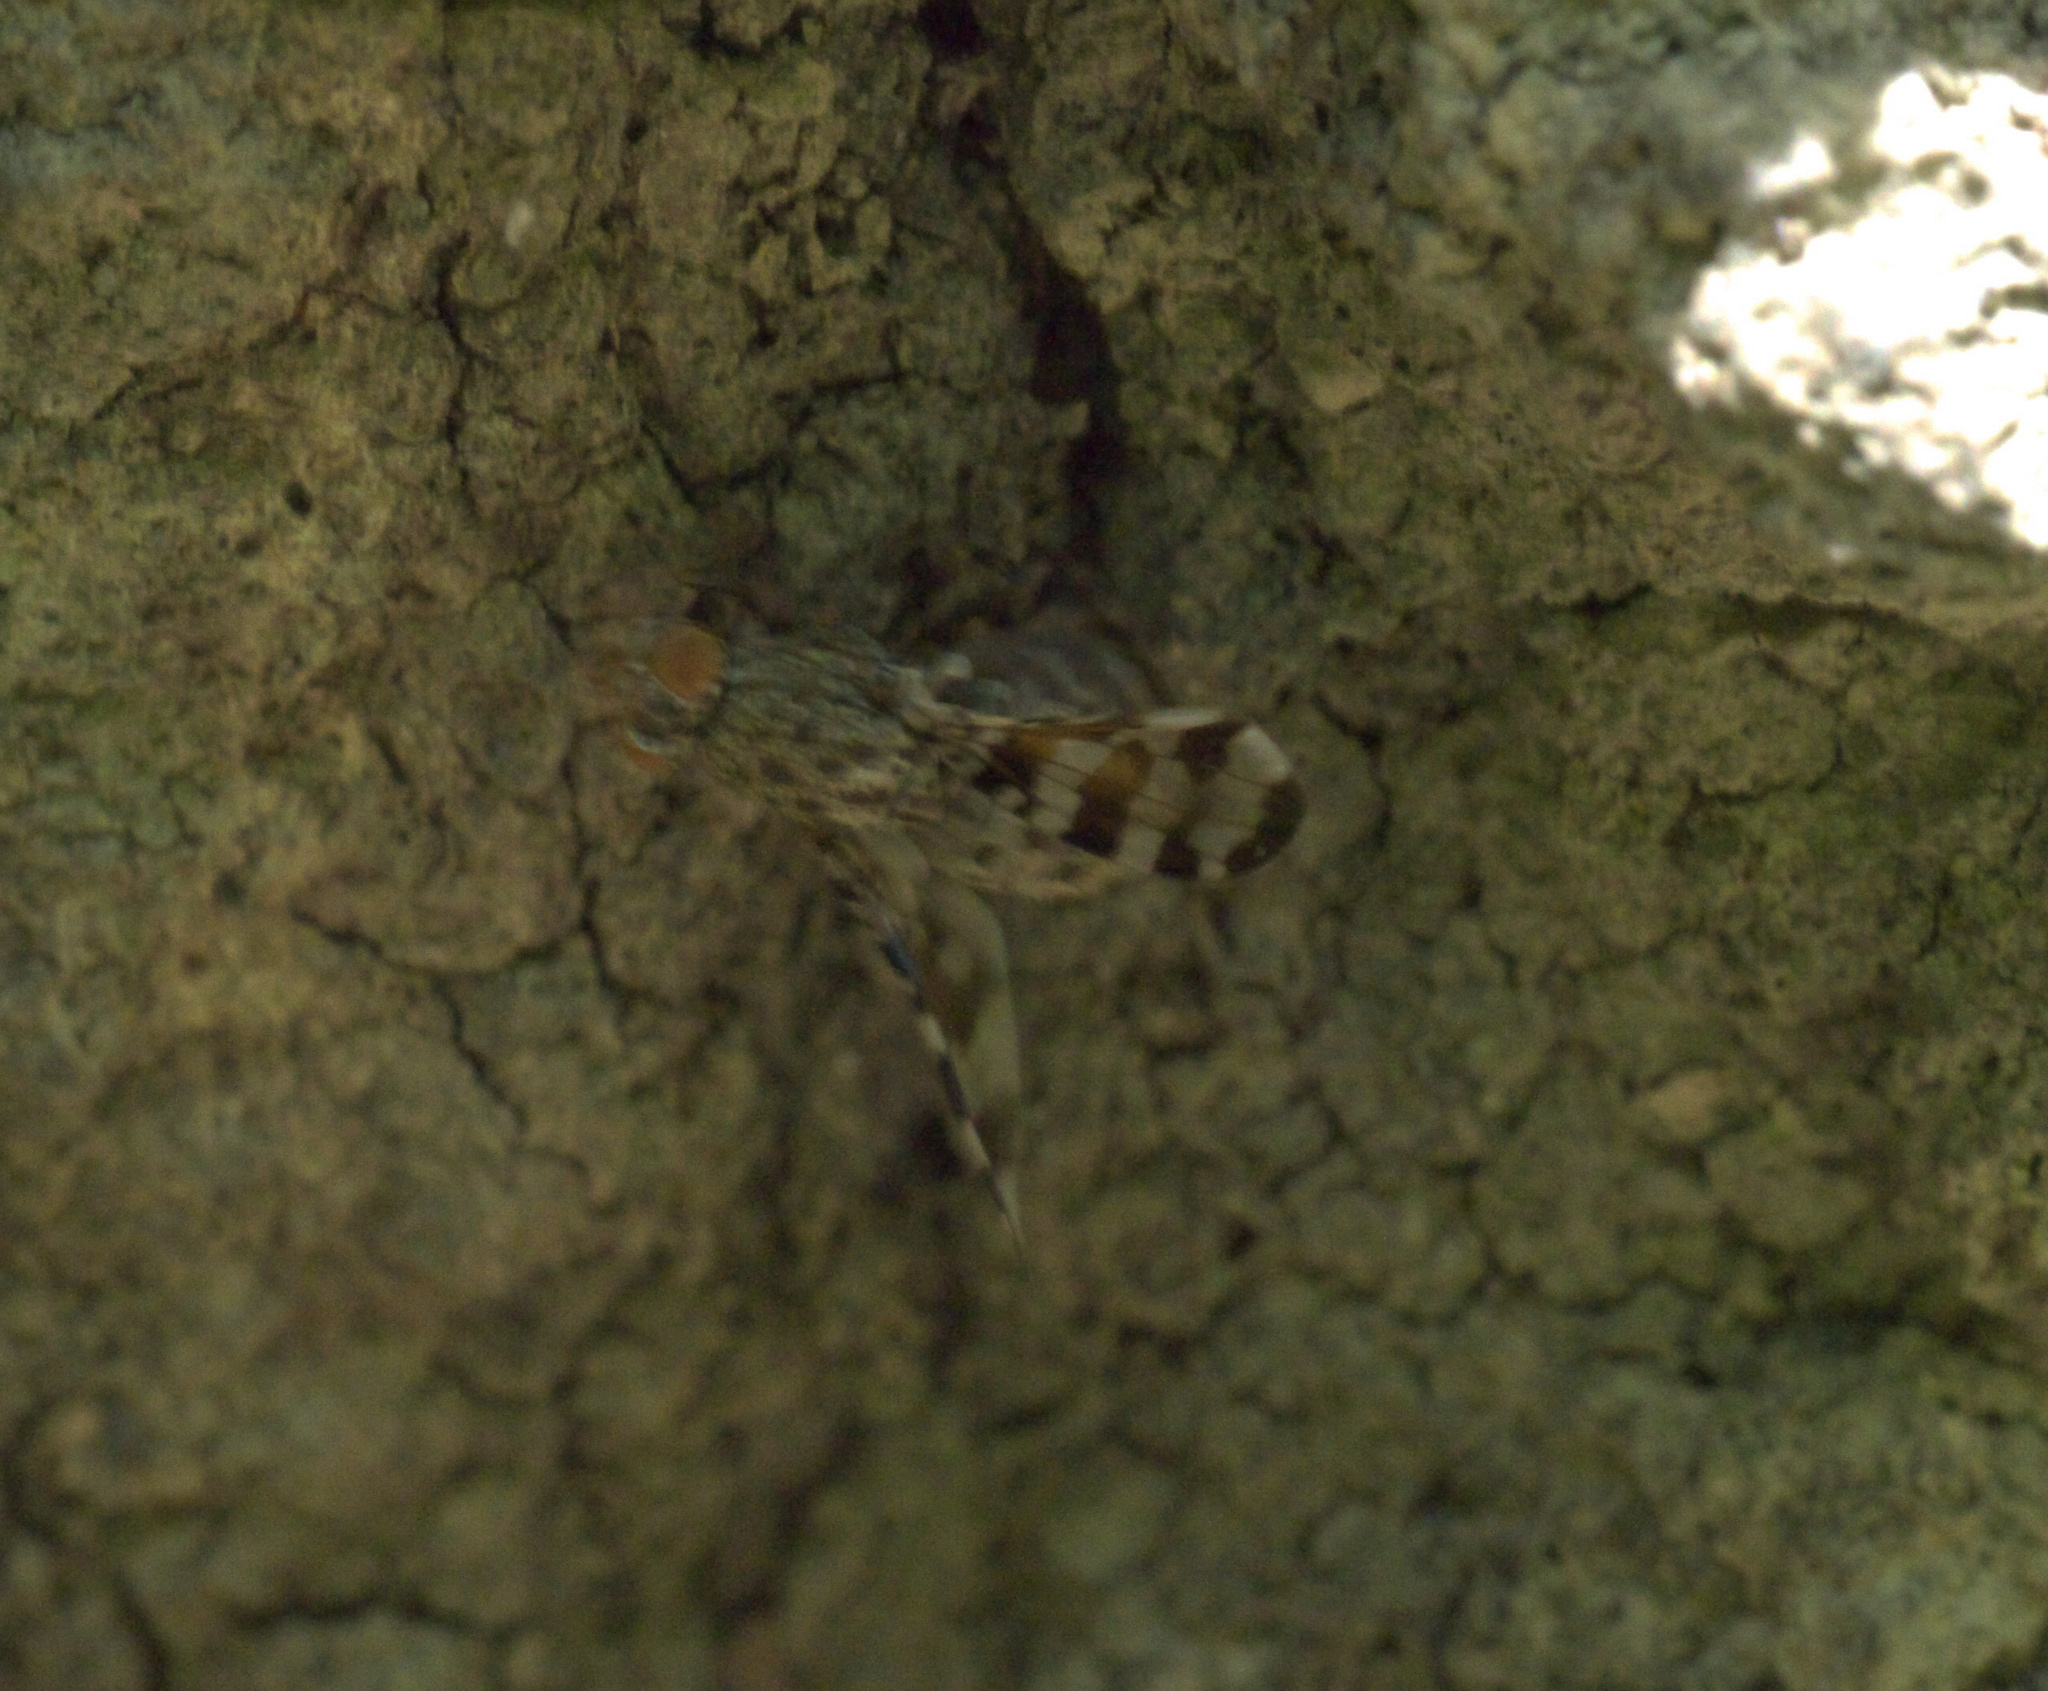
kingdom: Animalia
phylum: Arthropoda
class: Insecta
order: Diptera
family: Ulidiidae
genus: Pseudotephritis
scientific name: Pseudotephritis approximata
